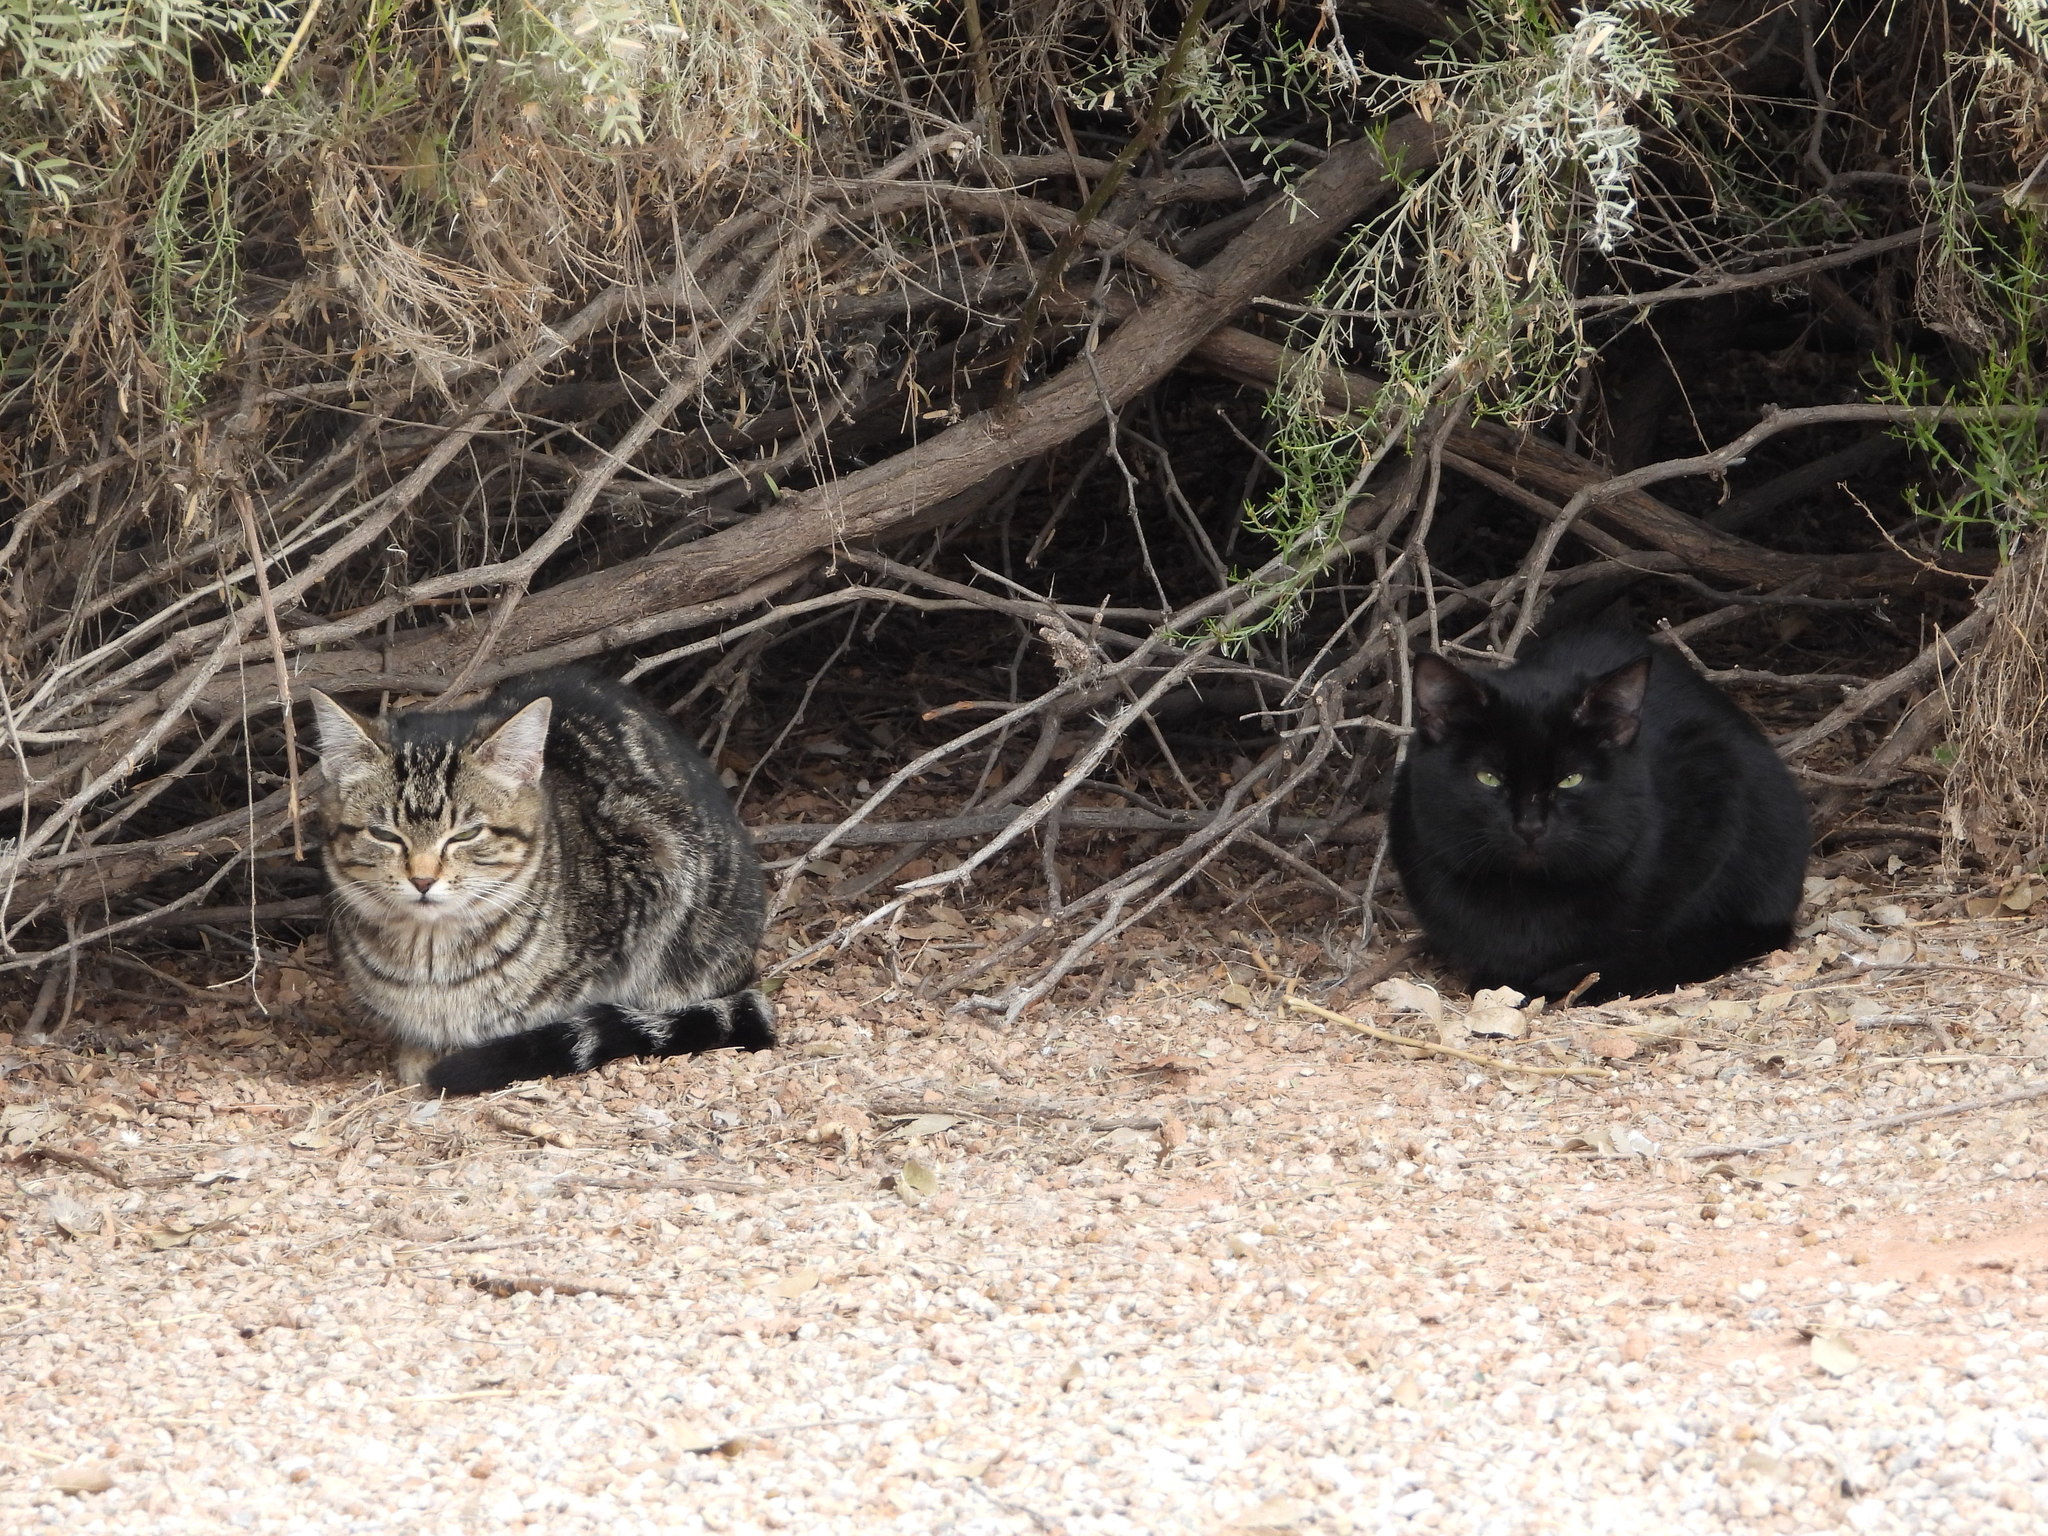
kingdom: Animalia
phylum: Chordata
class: Mammalia
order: Carnivora
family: Felidae
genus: Felis
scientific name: Felis catus
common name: Domestic cat
